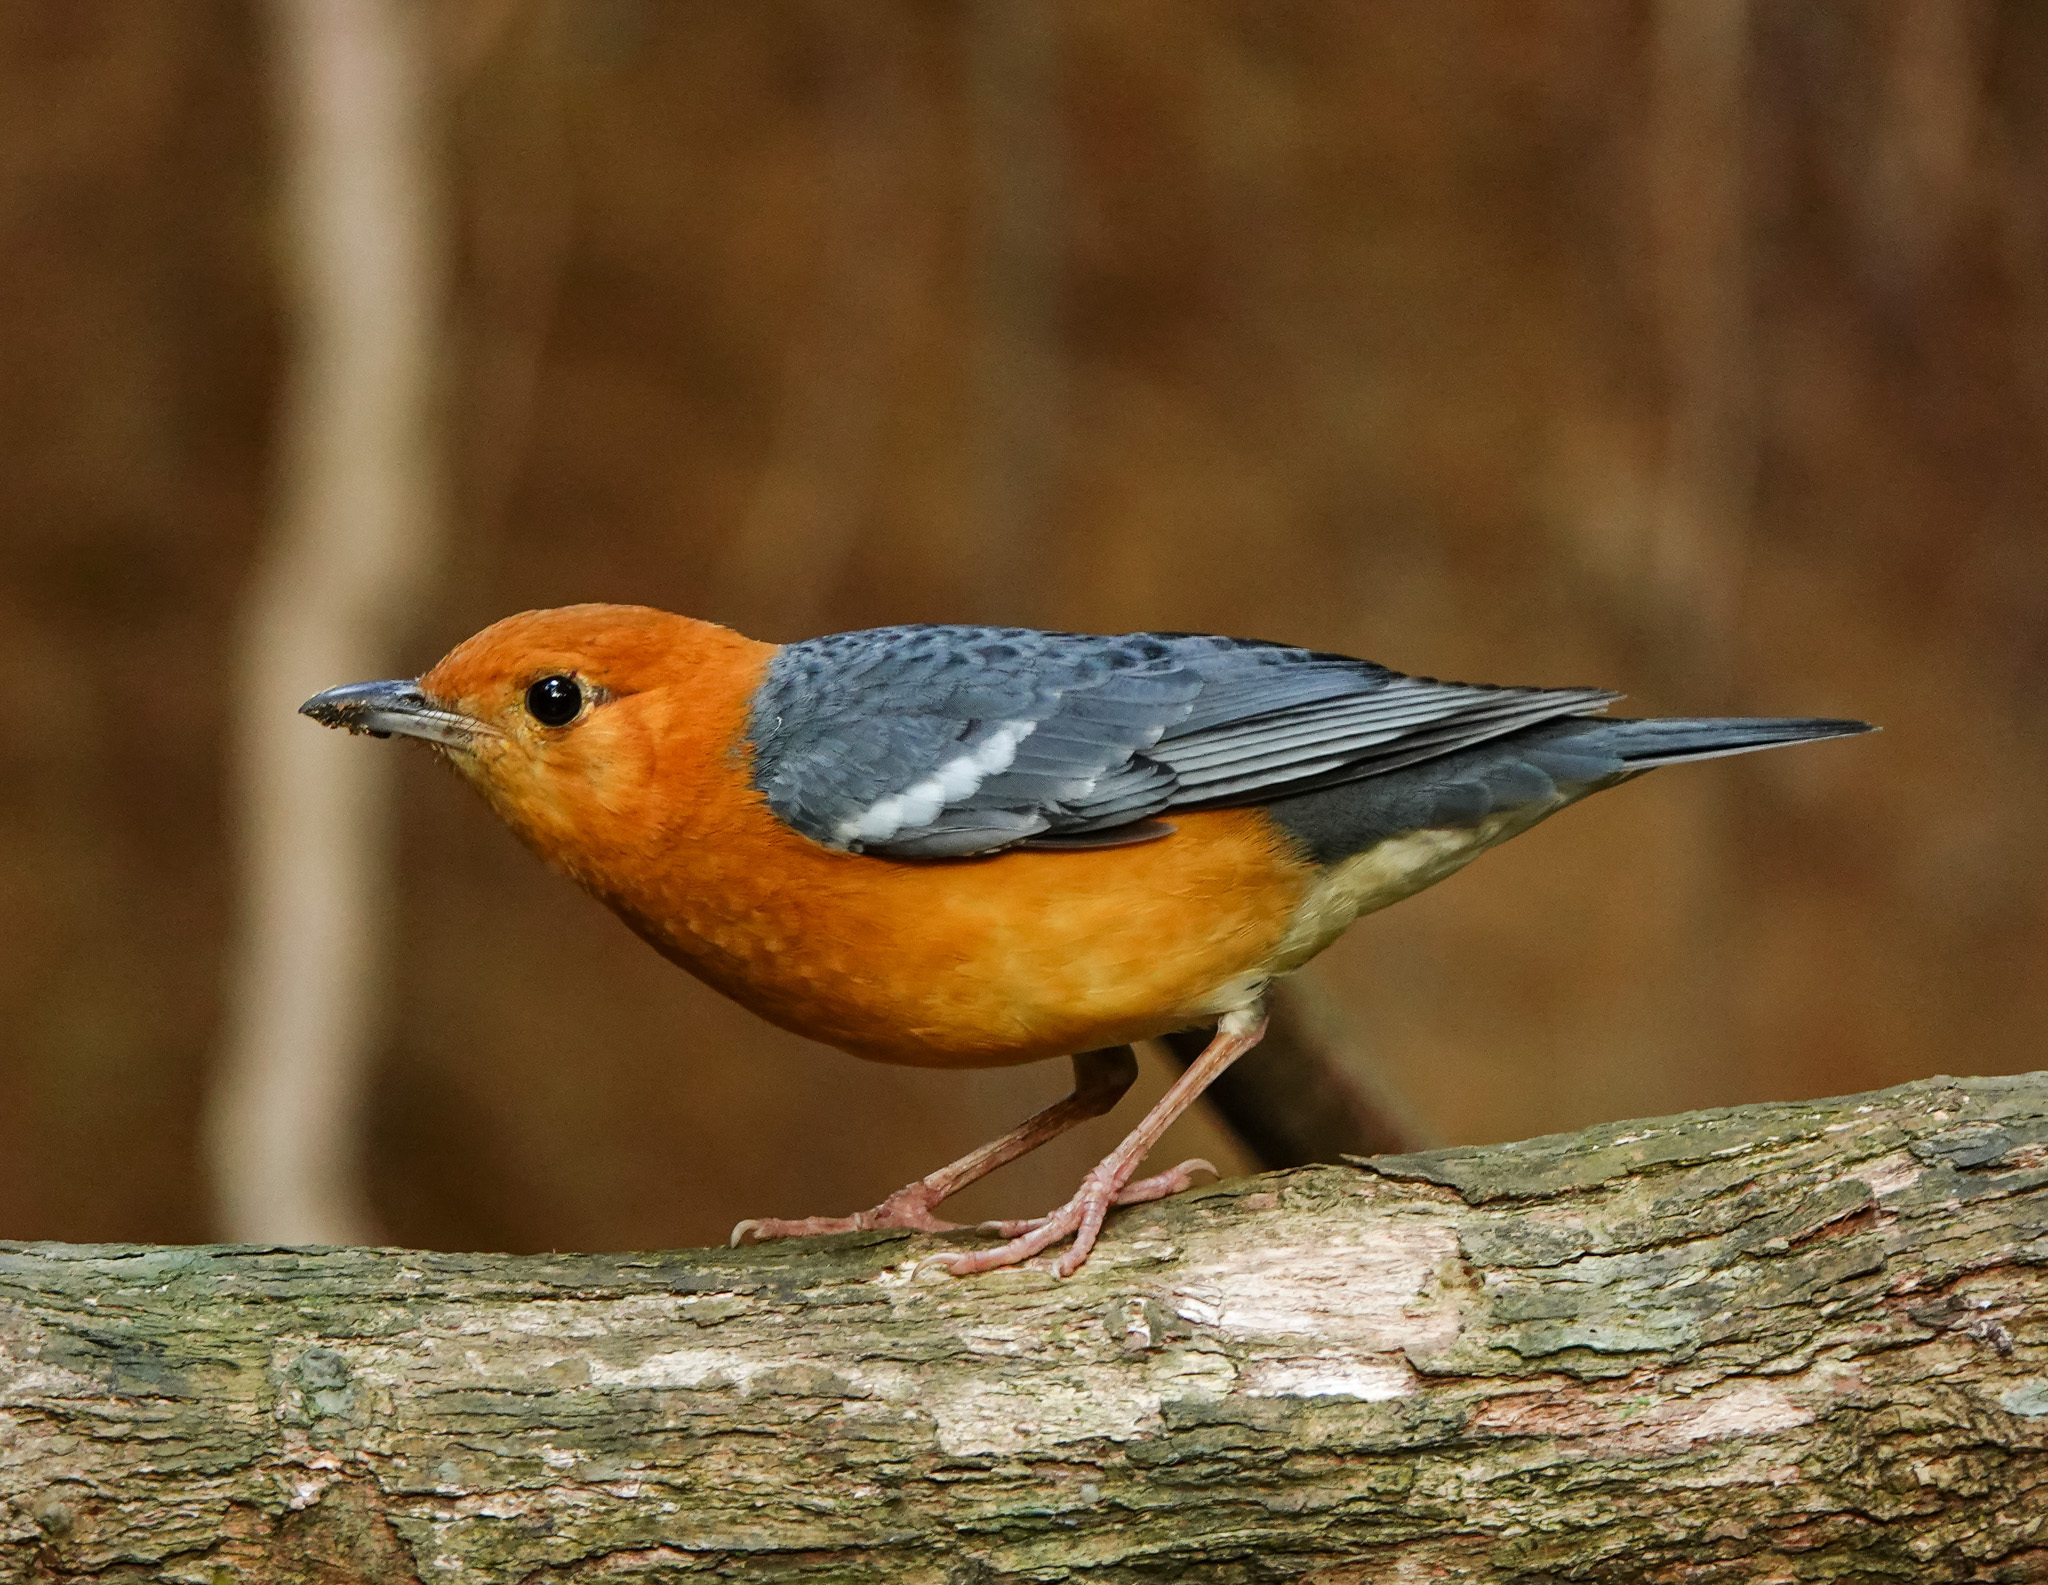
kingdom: Animalia
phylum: Chordata
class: Aves
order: Passeriformes
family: Turdidae
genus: Geokichla
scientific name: Geokichla citrina
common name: Orange-headed thrush
